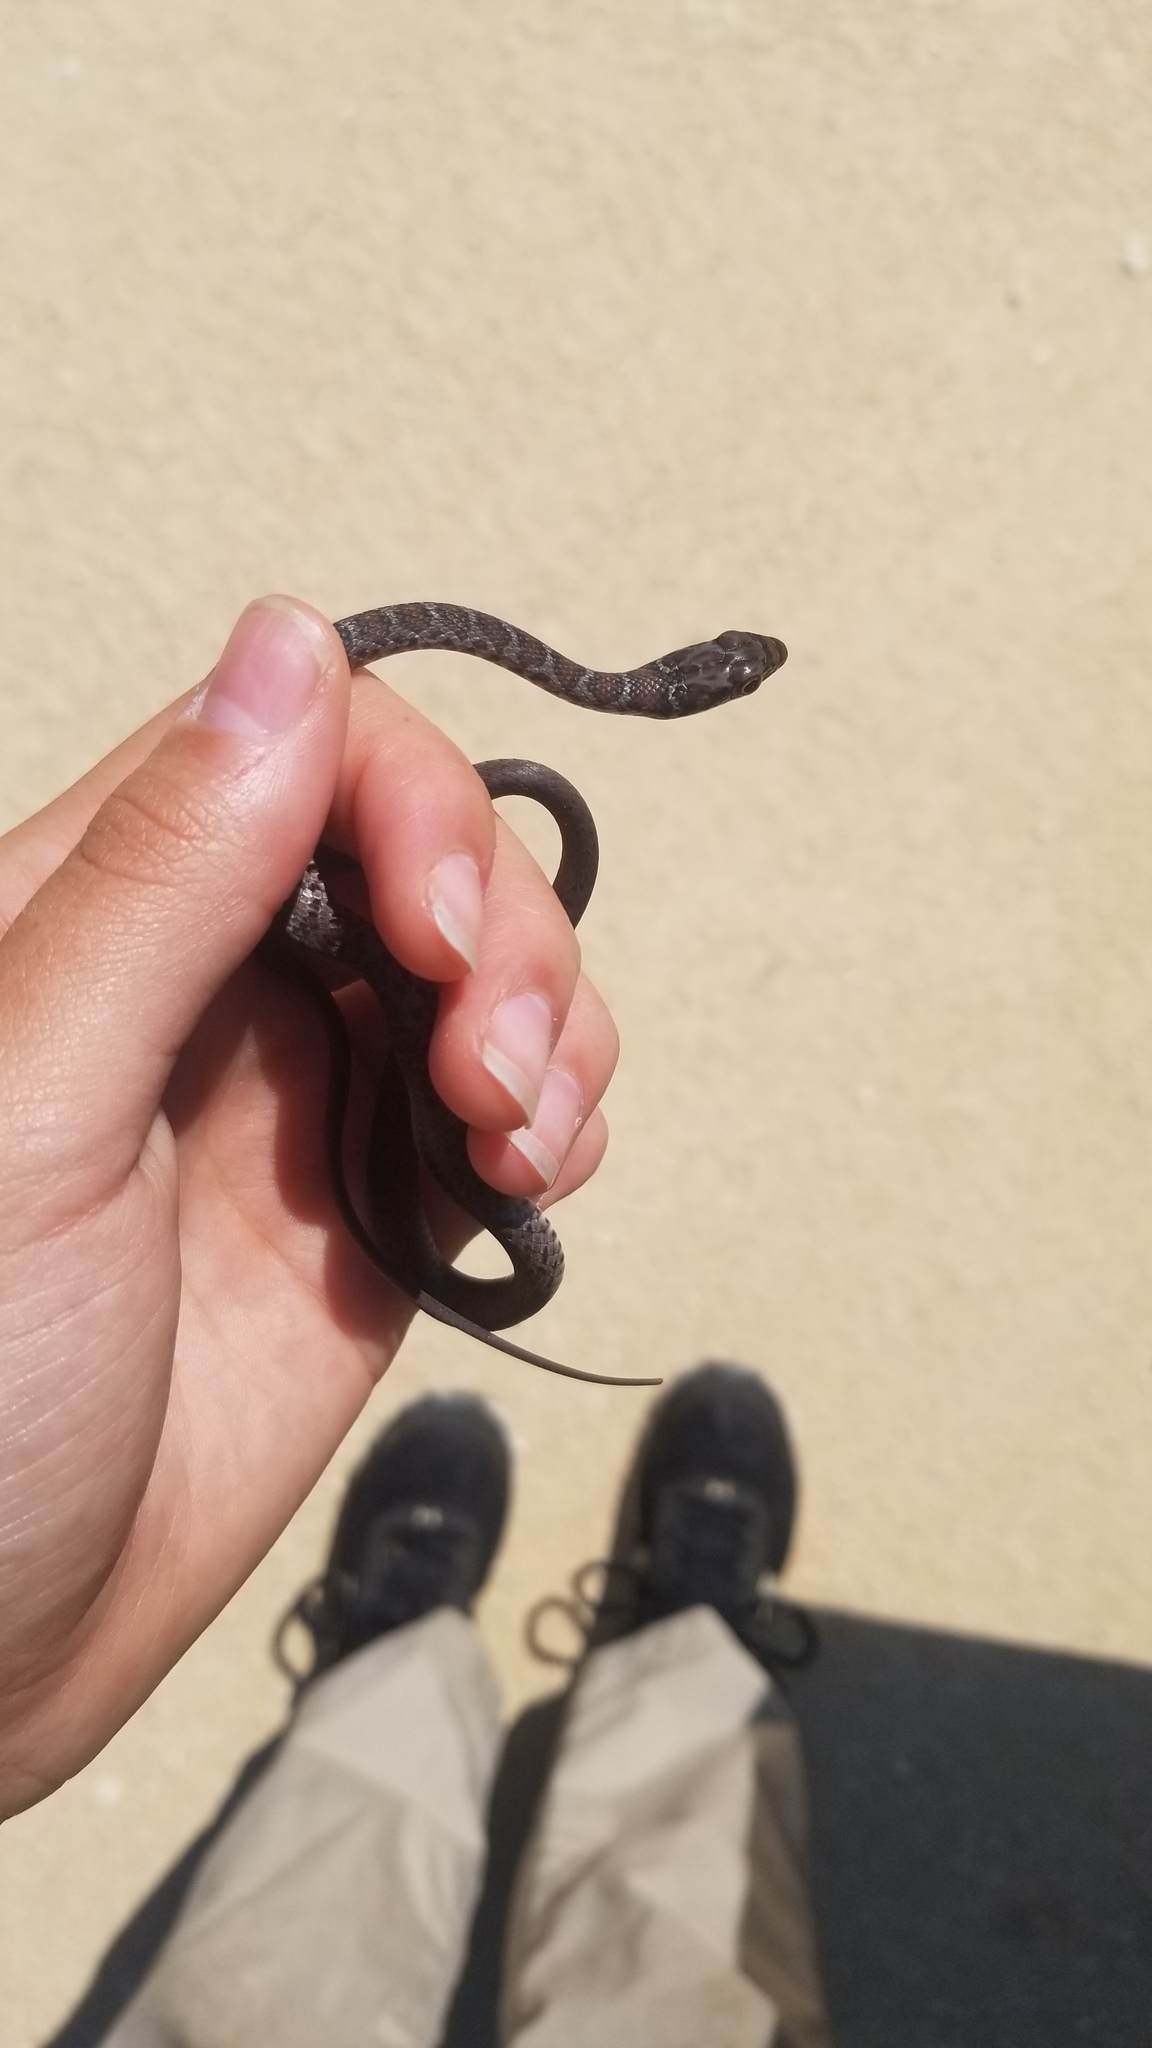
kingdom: Animalia
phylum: Chordata
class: Squamata
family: Colubridae
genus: Coluber
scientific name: Coluber constrictor
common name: Eastern racer
